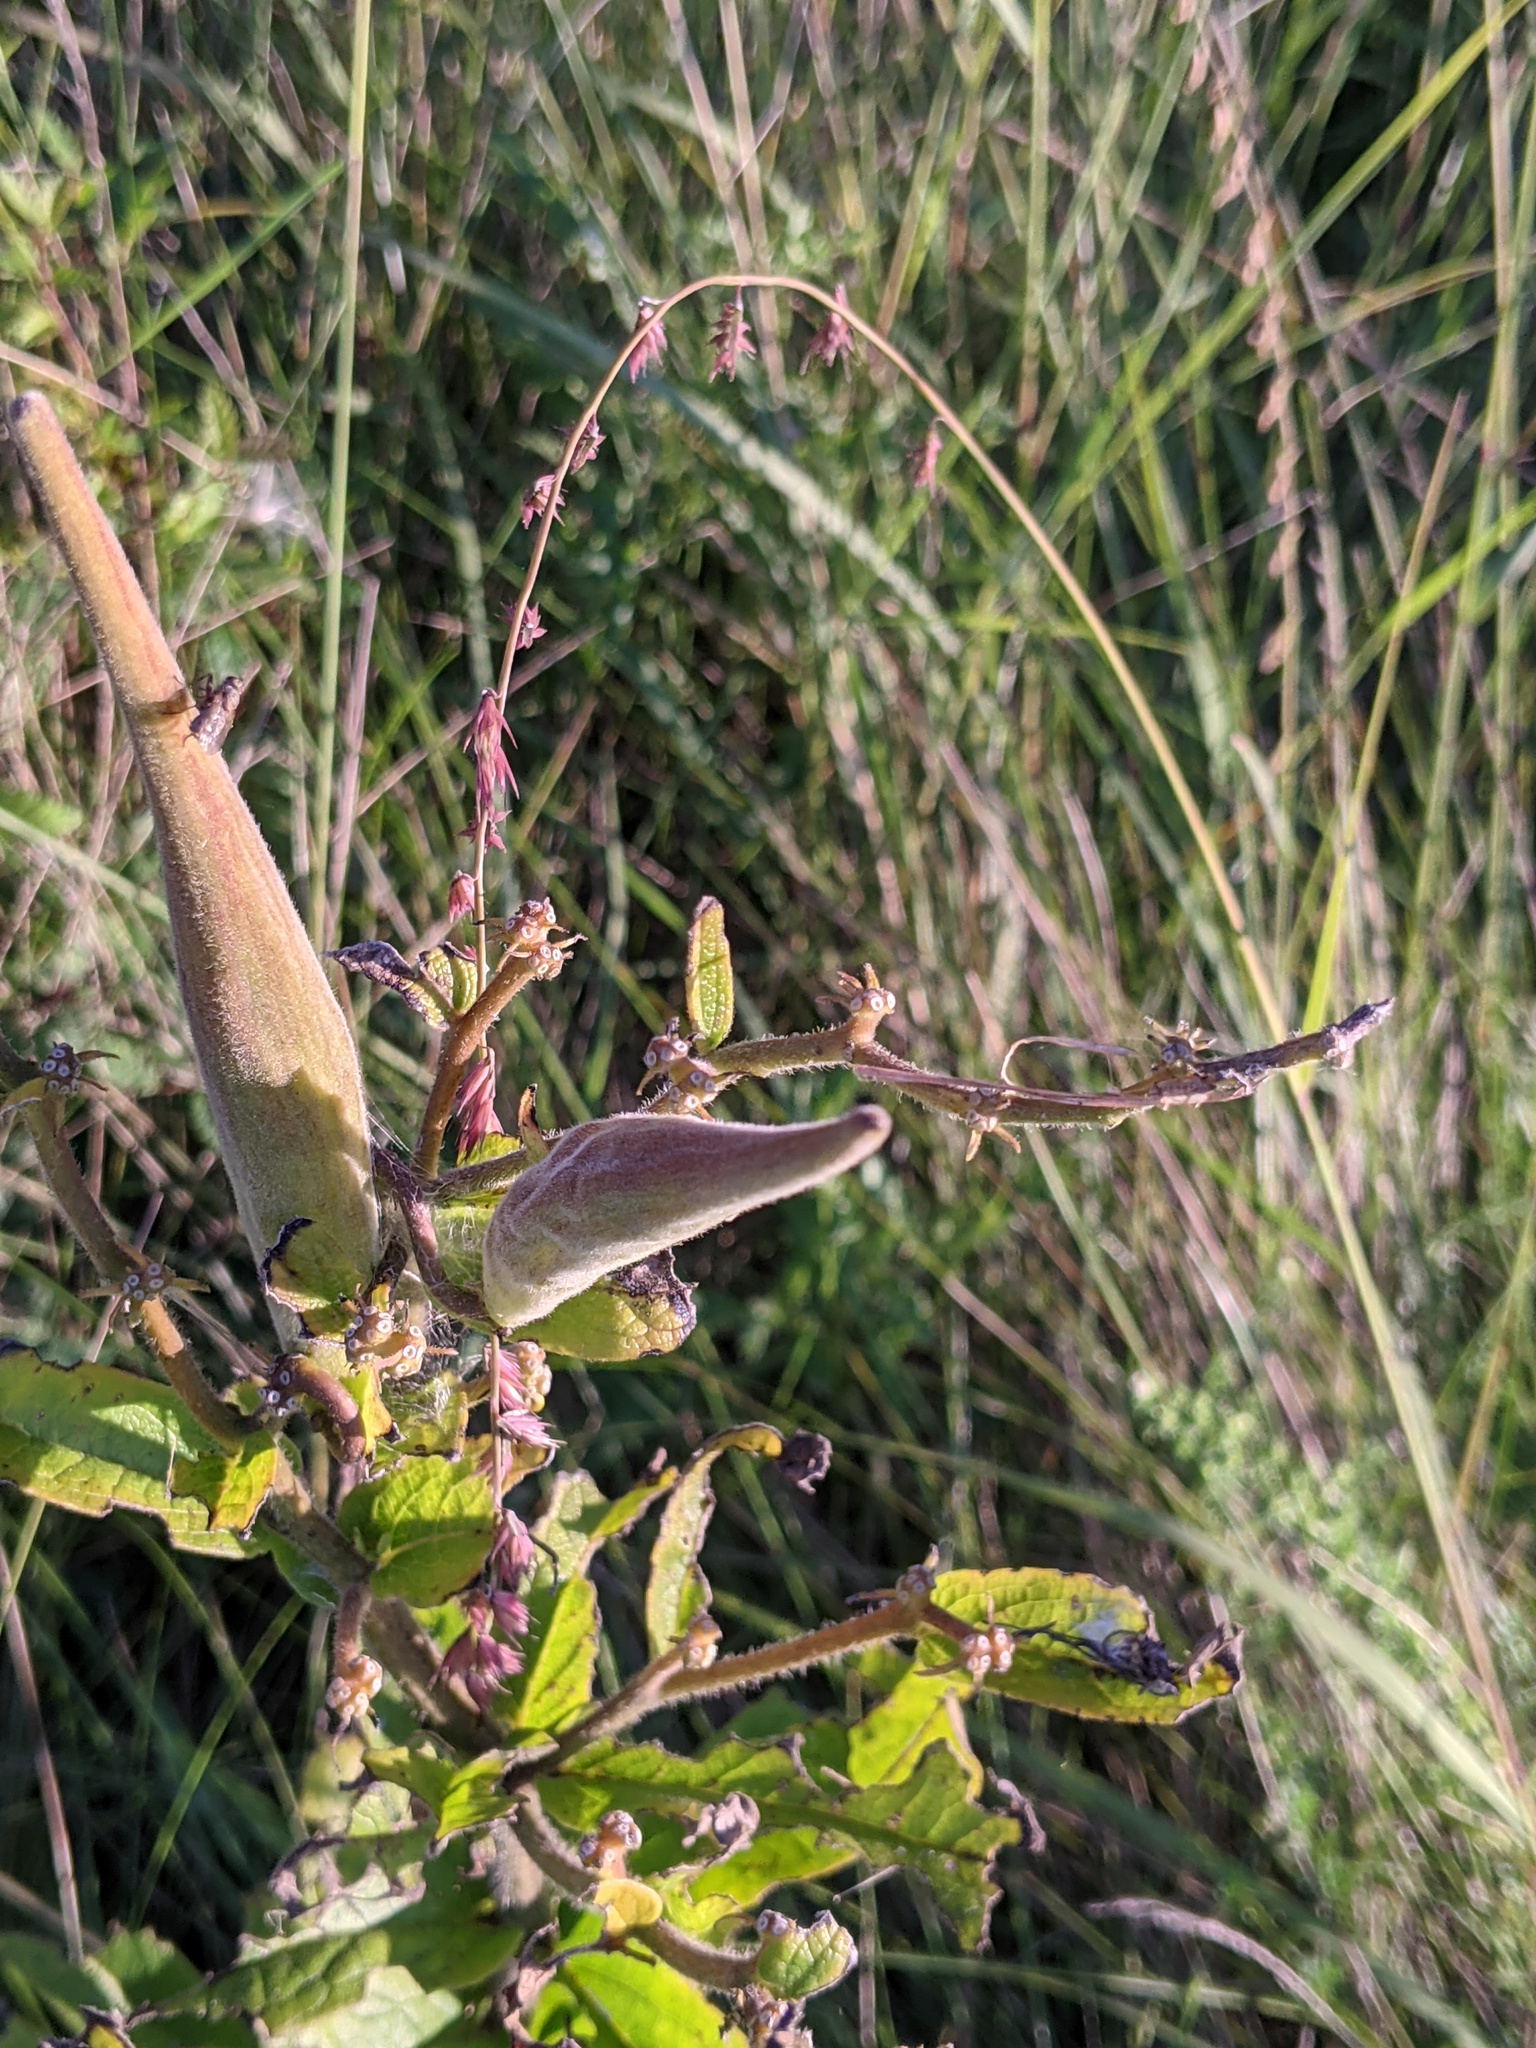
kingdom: Plantae
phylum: Tracheophyta
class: Magnoliopsida
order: Gentianales
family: Apocynaceae
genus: Asclepias
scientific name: Asclepias tuberosa
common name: Butterfly milkweed
